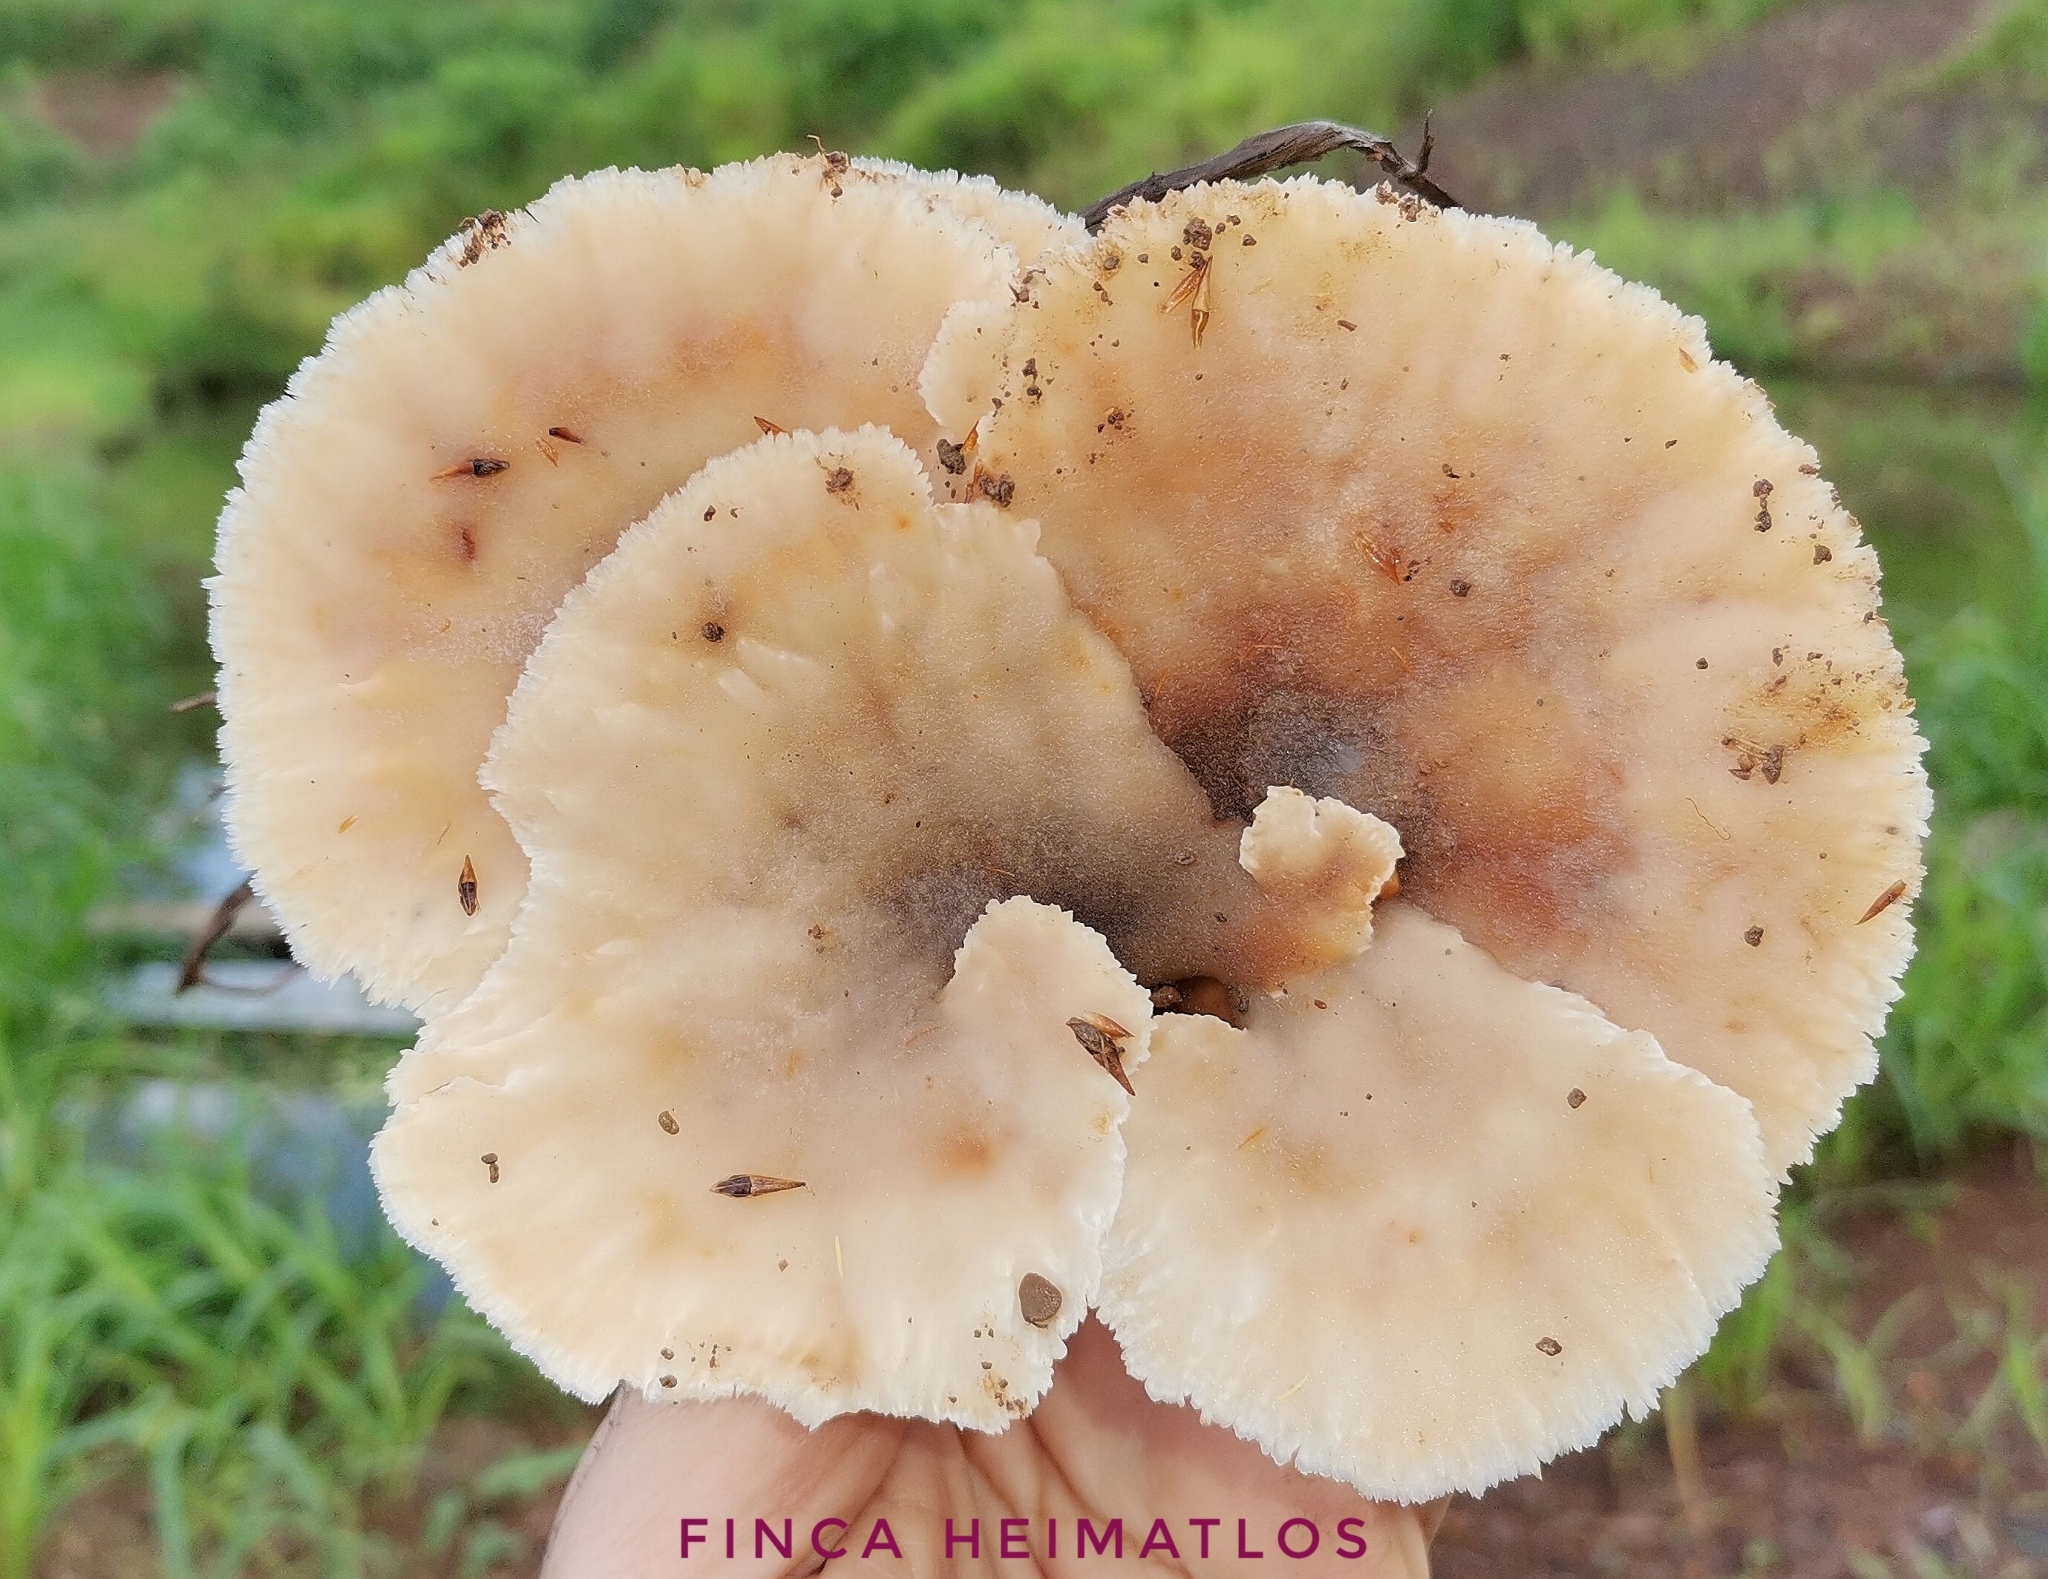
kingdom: Fungi
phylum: Basidiomycota
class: Agaricomycetes
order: Polyporales
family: Panaceae
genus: Cymatoderma
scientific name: Cymatoderma dendriticum
